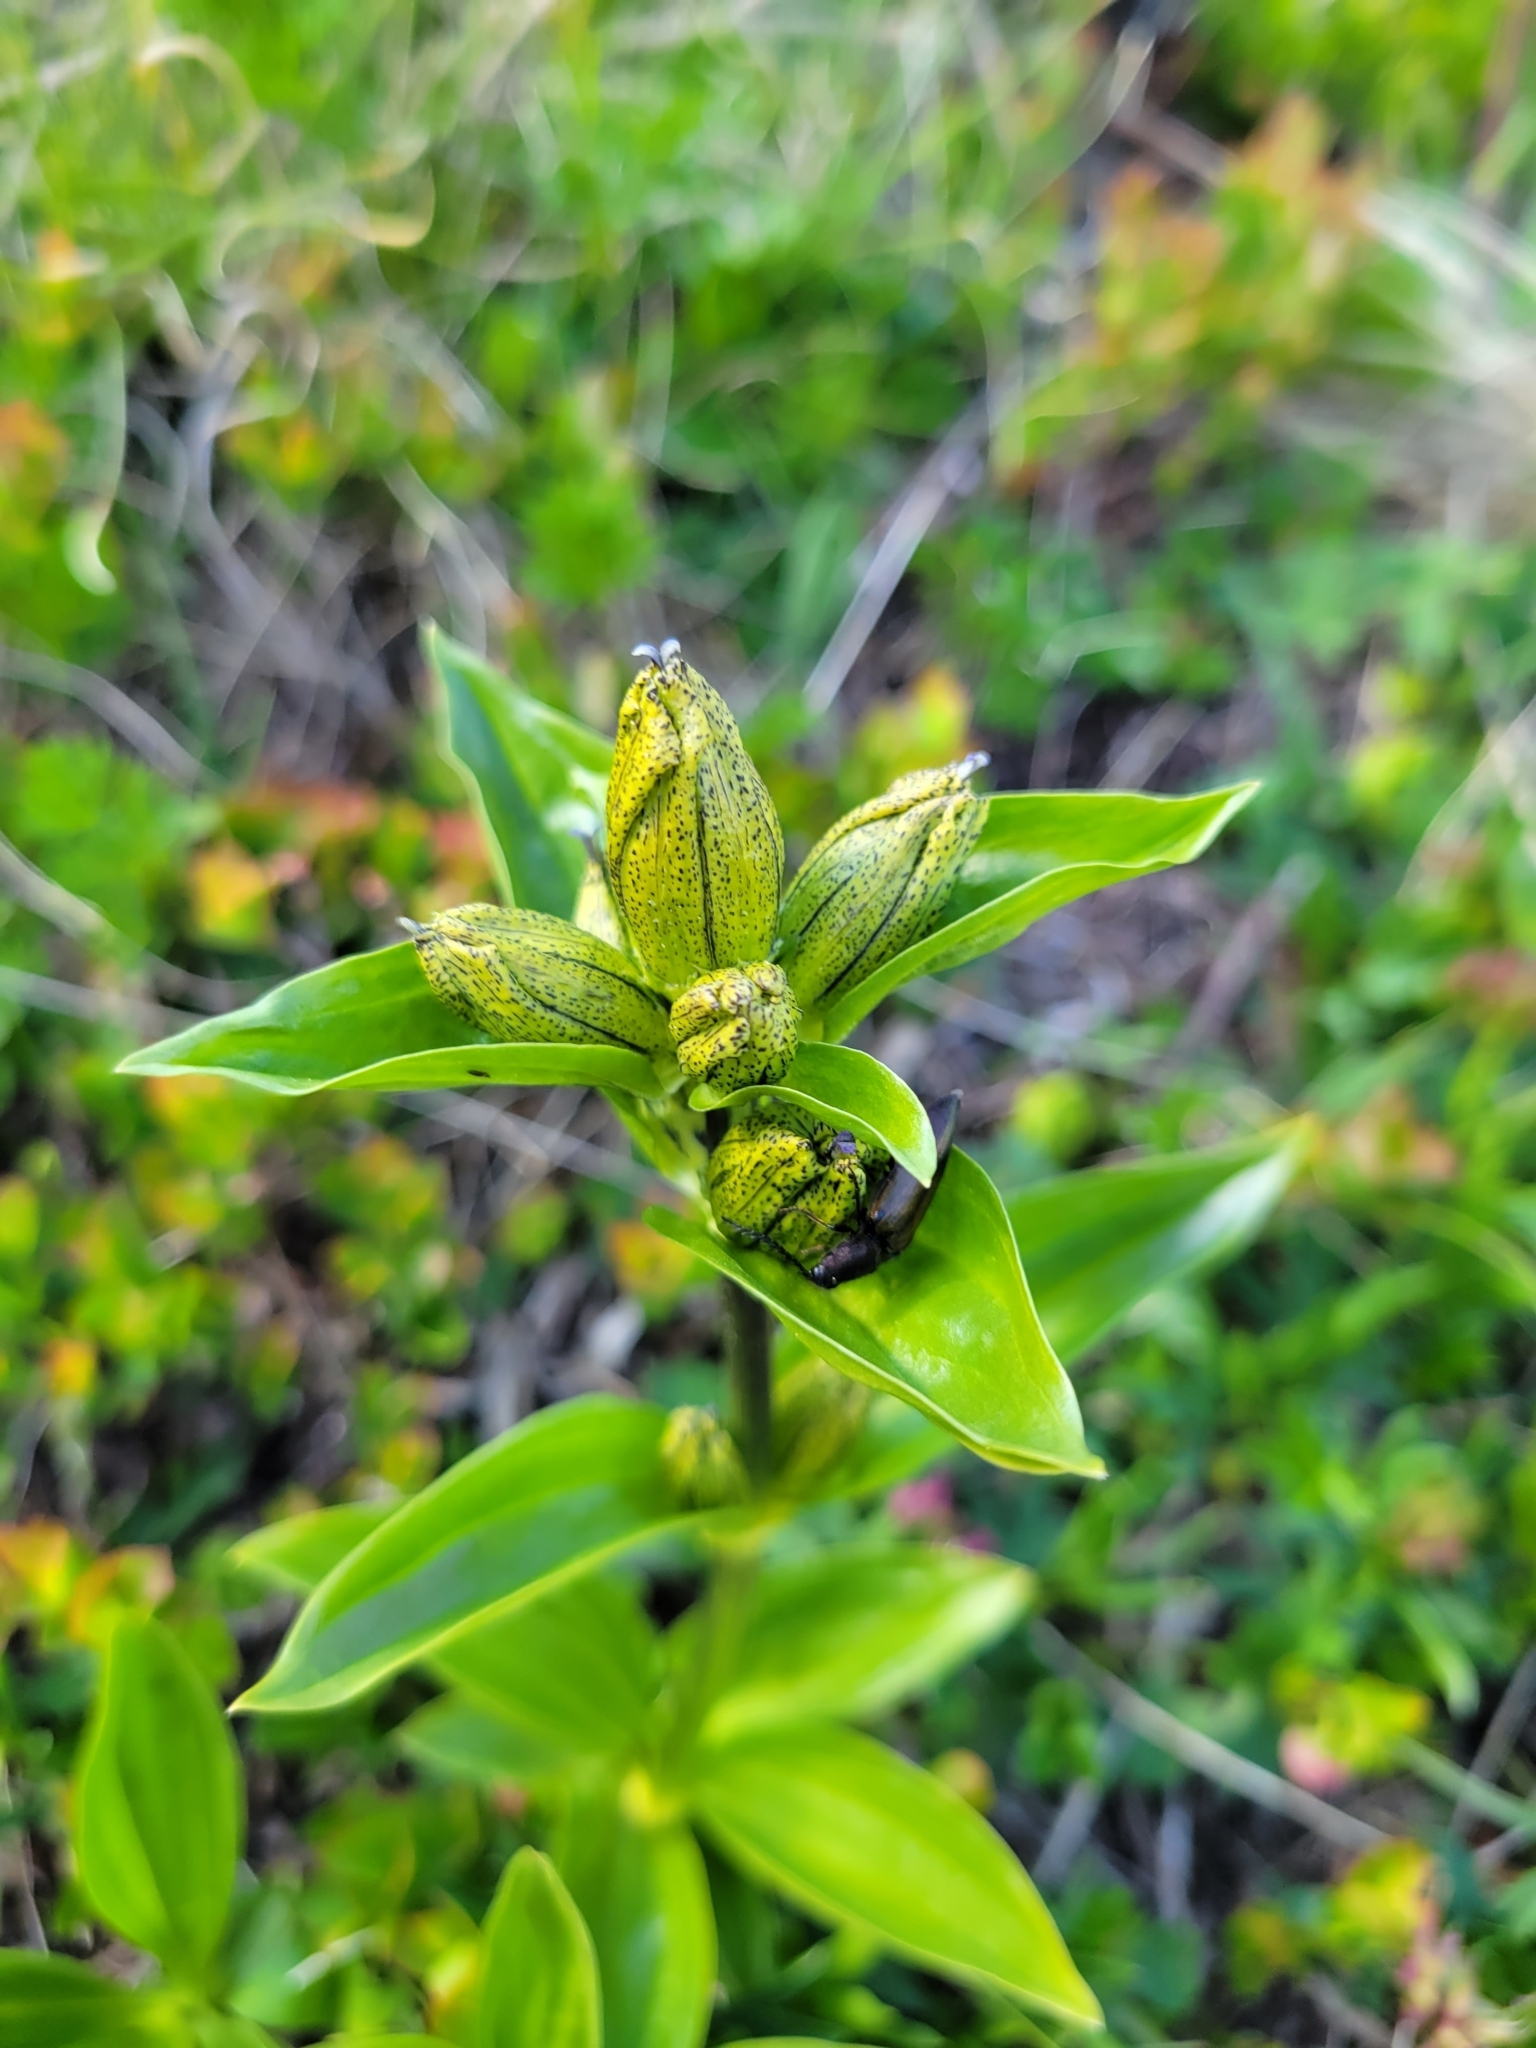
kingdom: Plantae
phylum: Tracheophyta
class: Magnoliopsida
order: Gentianales
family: Gentianaceae
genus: Gentiana
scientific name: Gentiana punctata
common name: Spotted gentian
